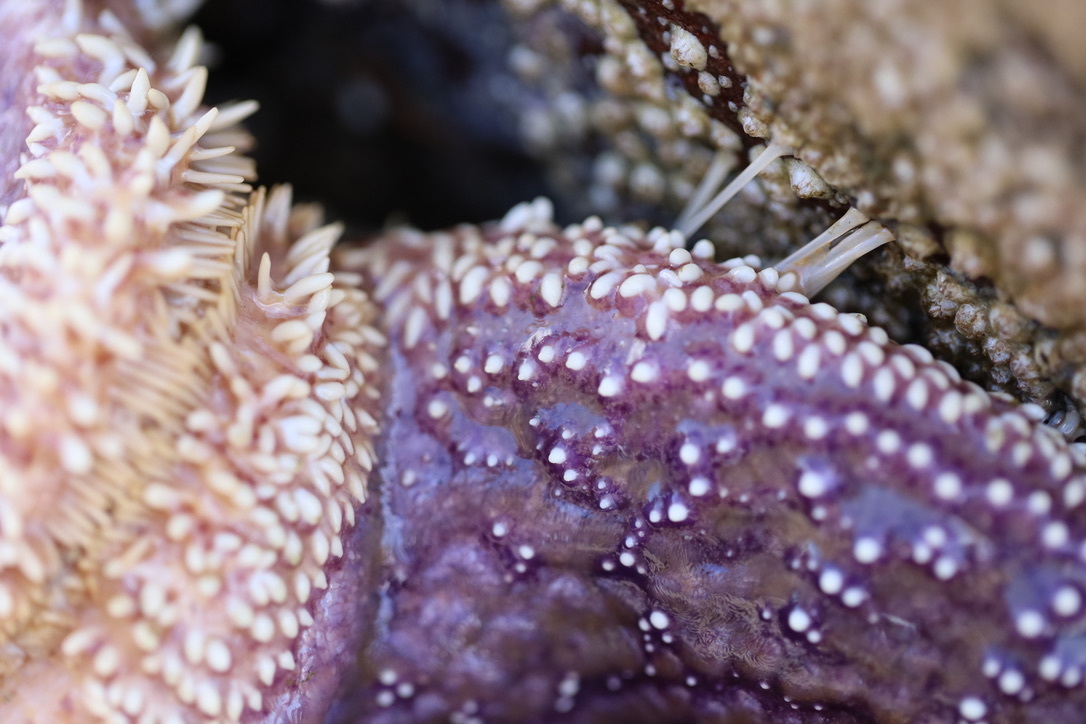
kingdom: Animalia
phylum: Echinodermata
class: Asteroidea
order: Forcipulatida
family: Asteriidae
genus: Pisaster
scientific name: Pisaster ochraceus
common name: Ochre stars
